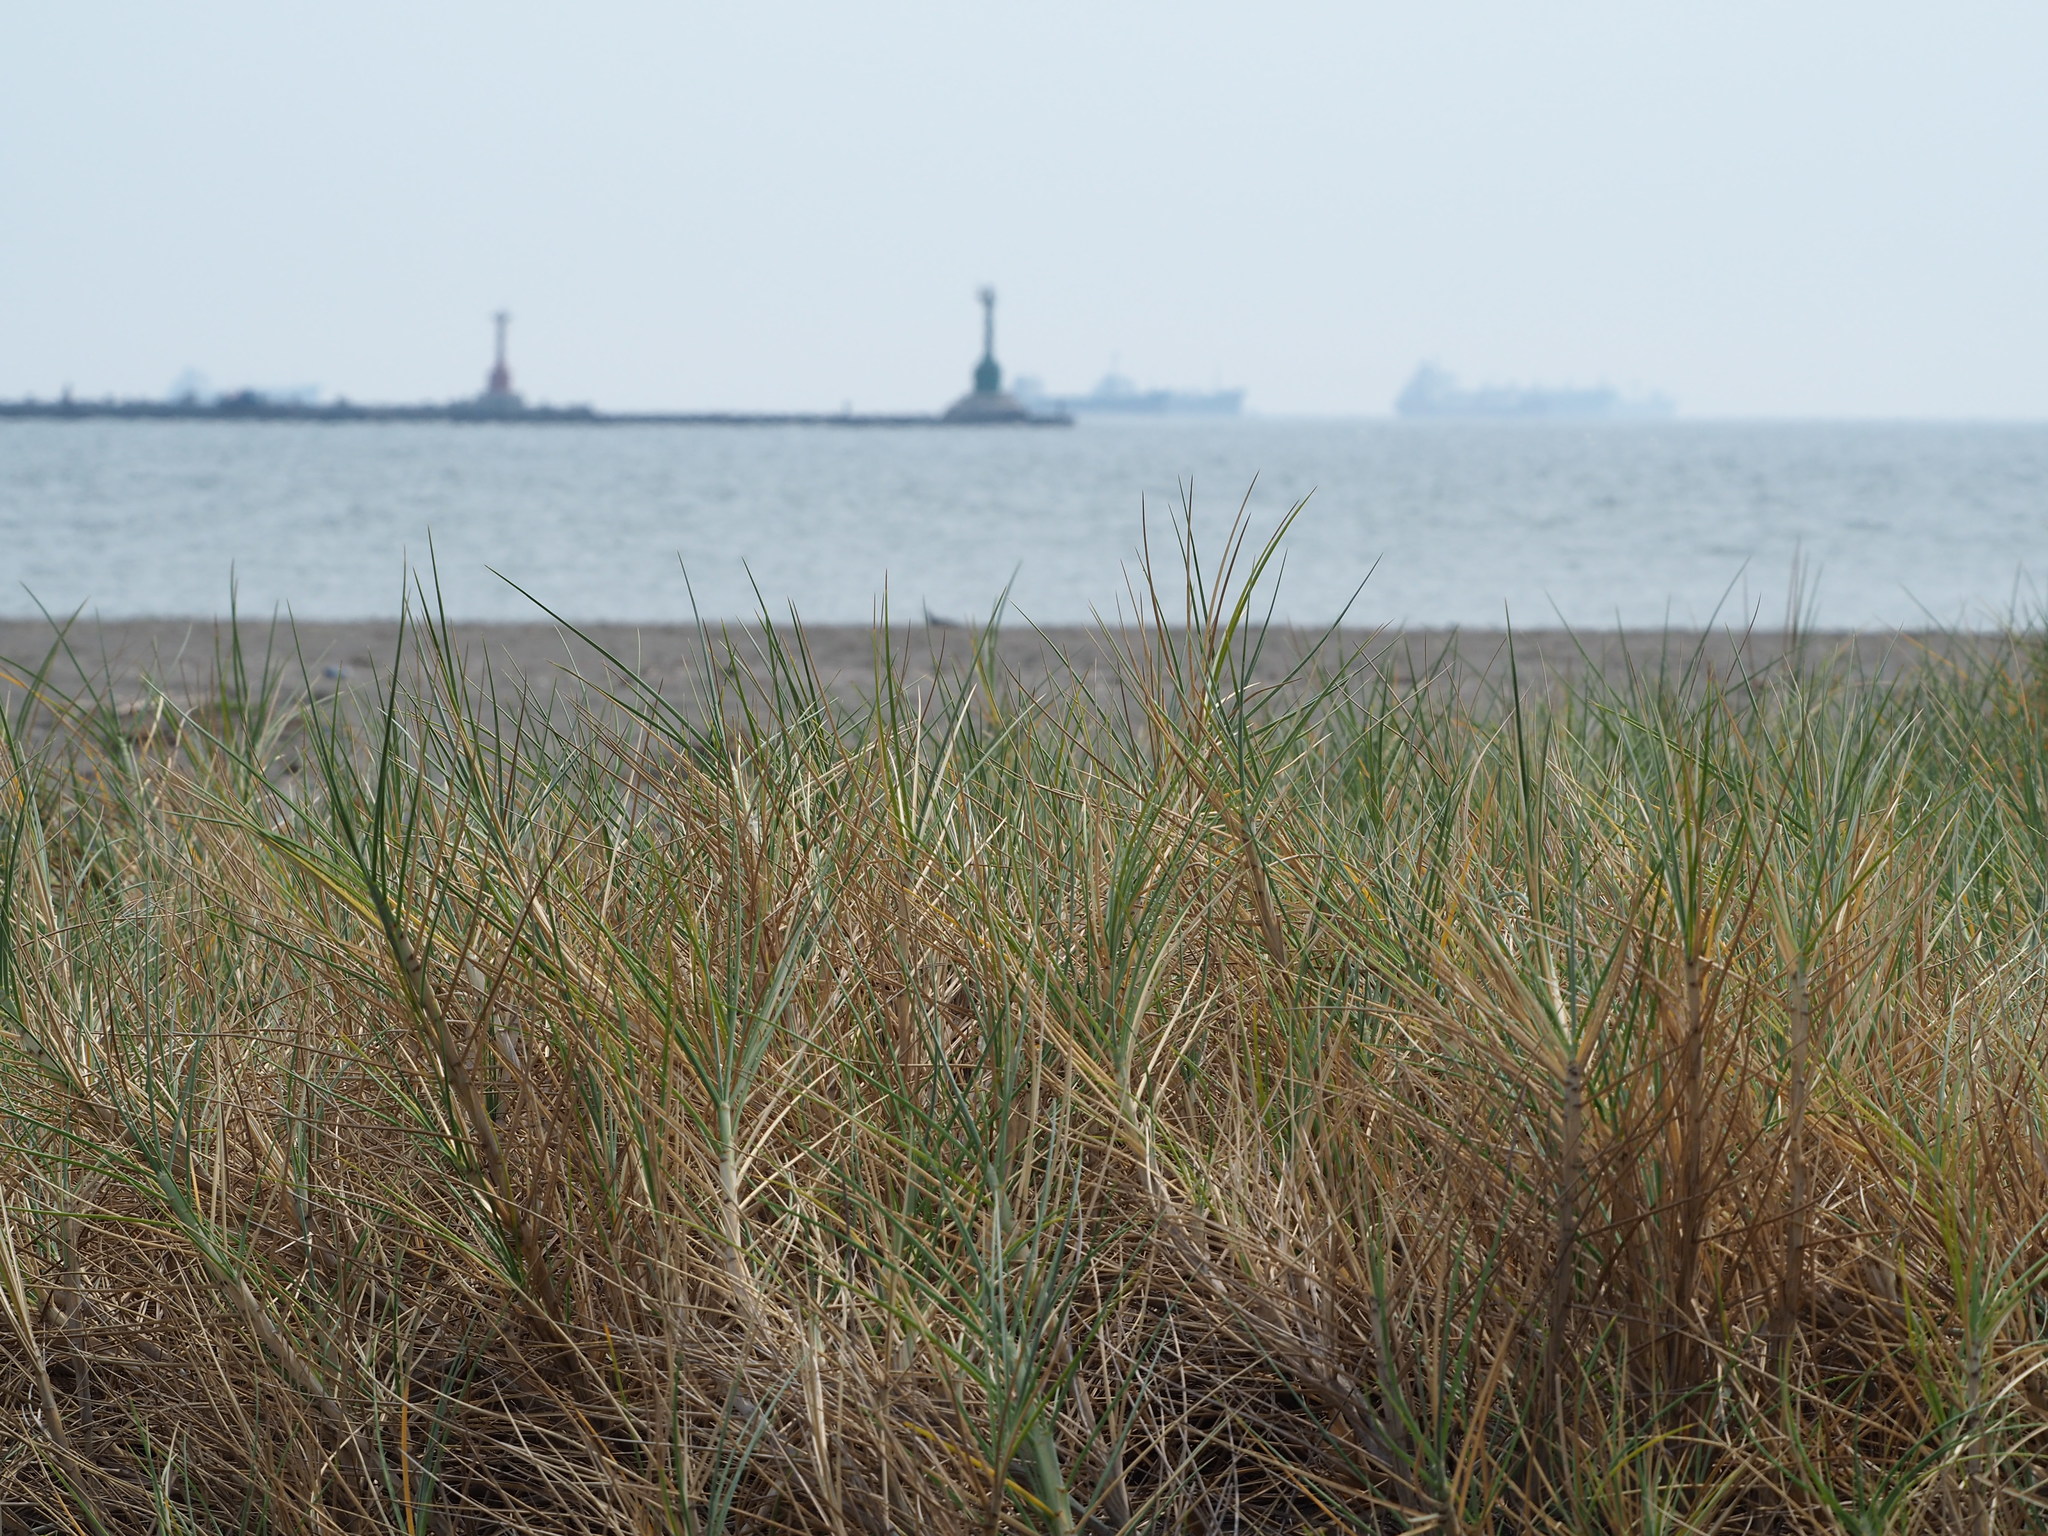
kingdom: Plantae
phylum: Tracheophyta
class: Liliopsida
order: Poales
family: Poaceae
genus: Spinifex
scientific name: Spinifex littoreus
